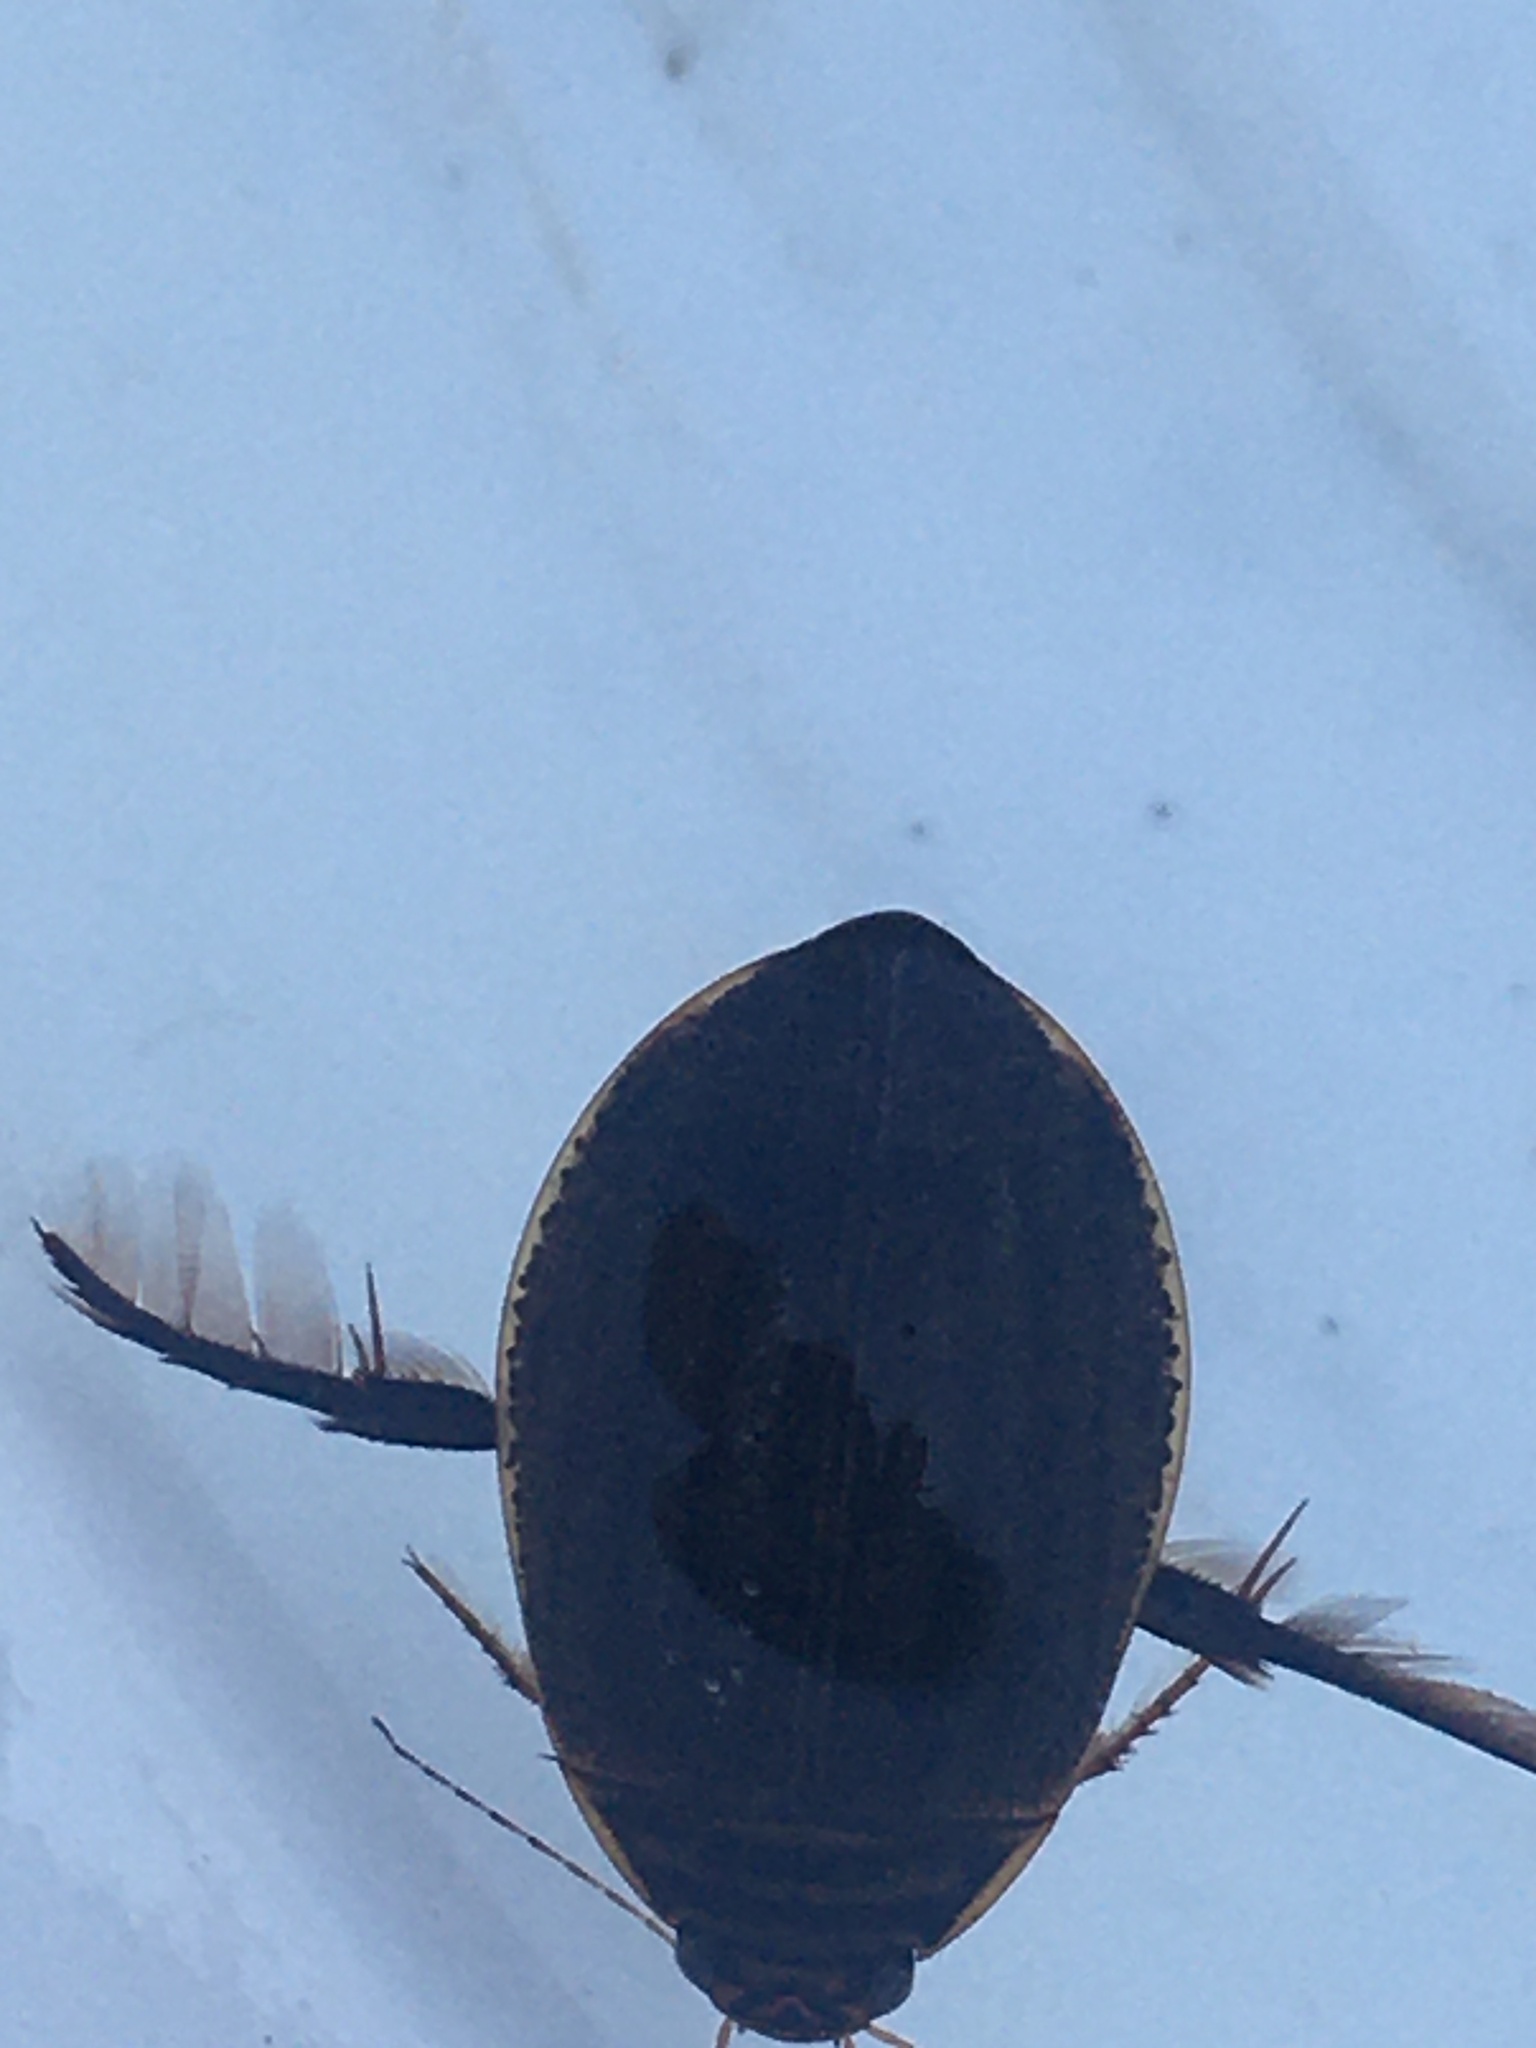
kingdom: Animalia
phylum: Arthropoda
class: Insecta
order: Coleoptera
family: Dytiscidae
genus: Acilius
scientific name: Acilius sulcatus
